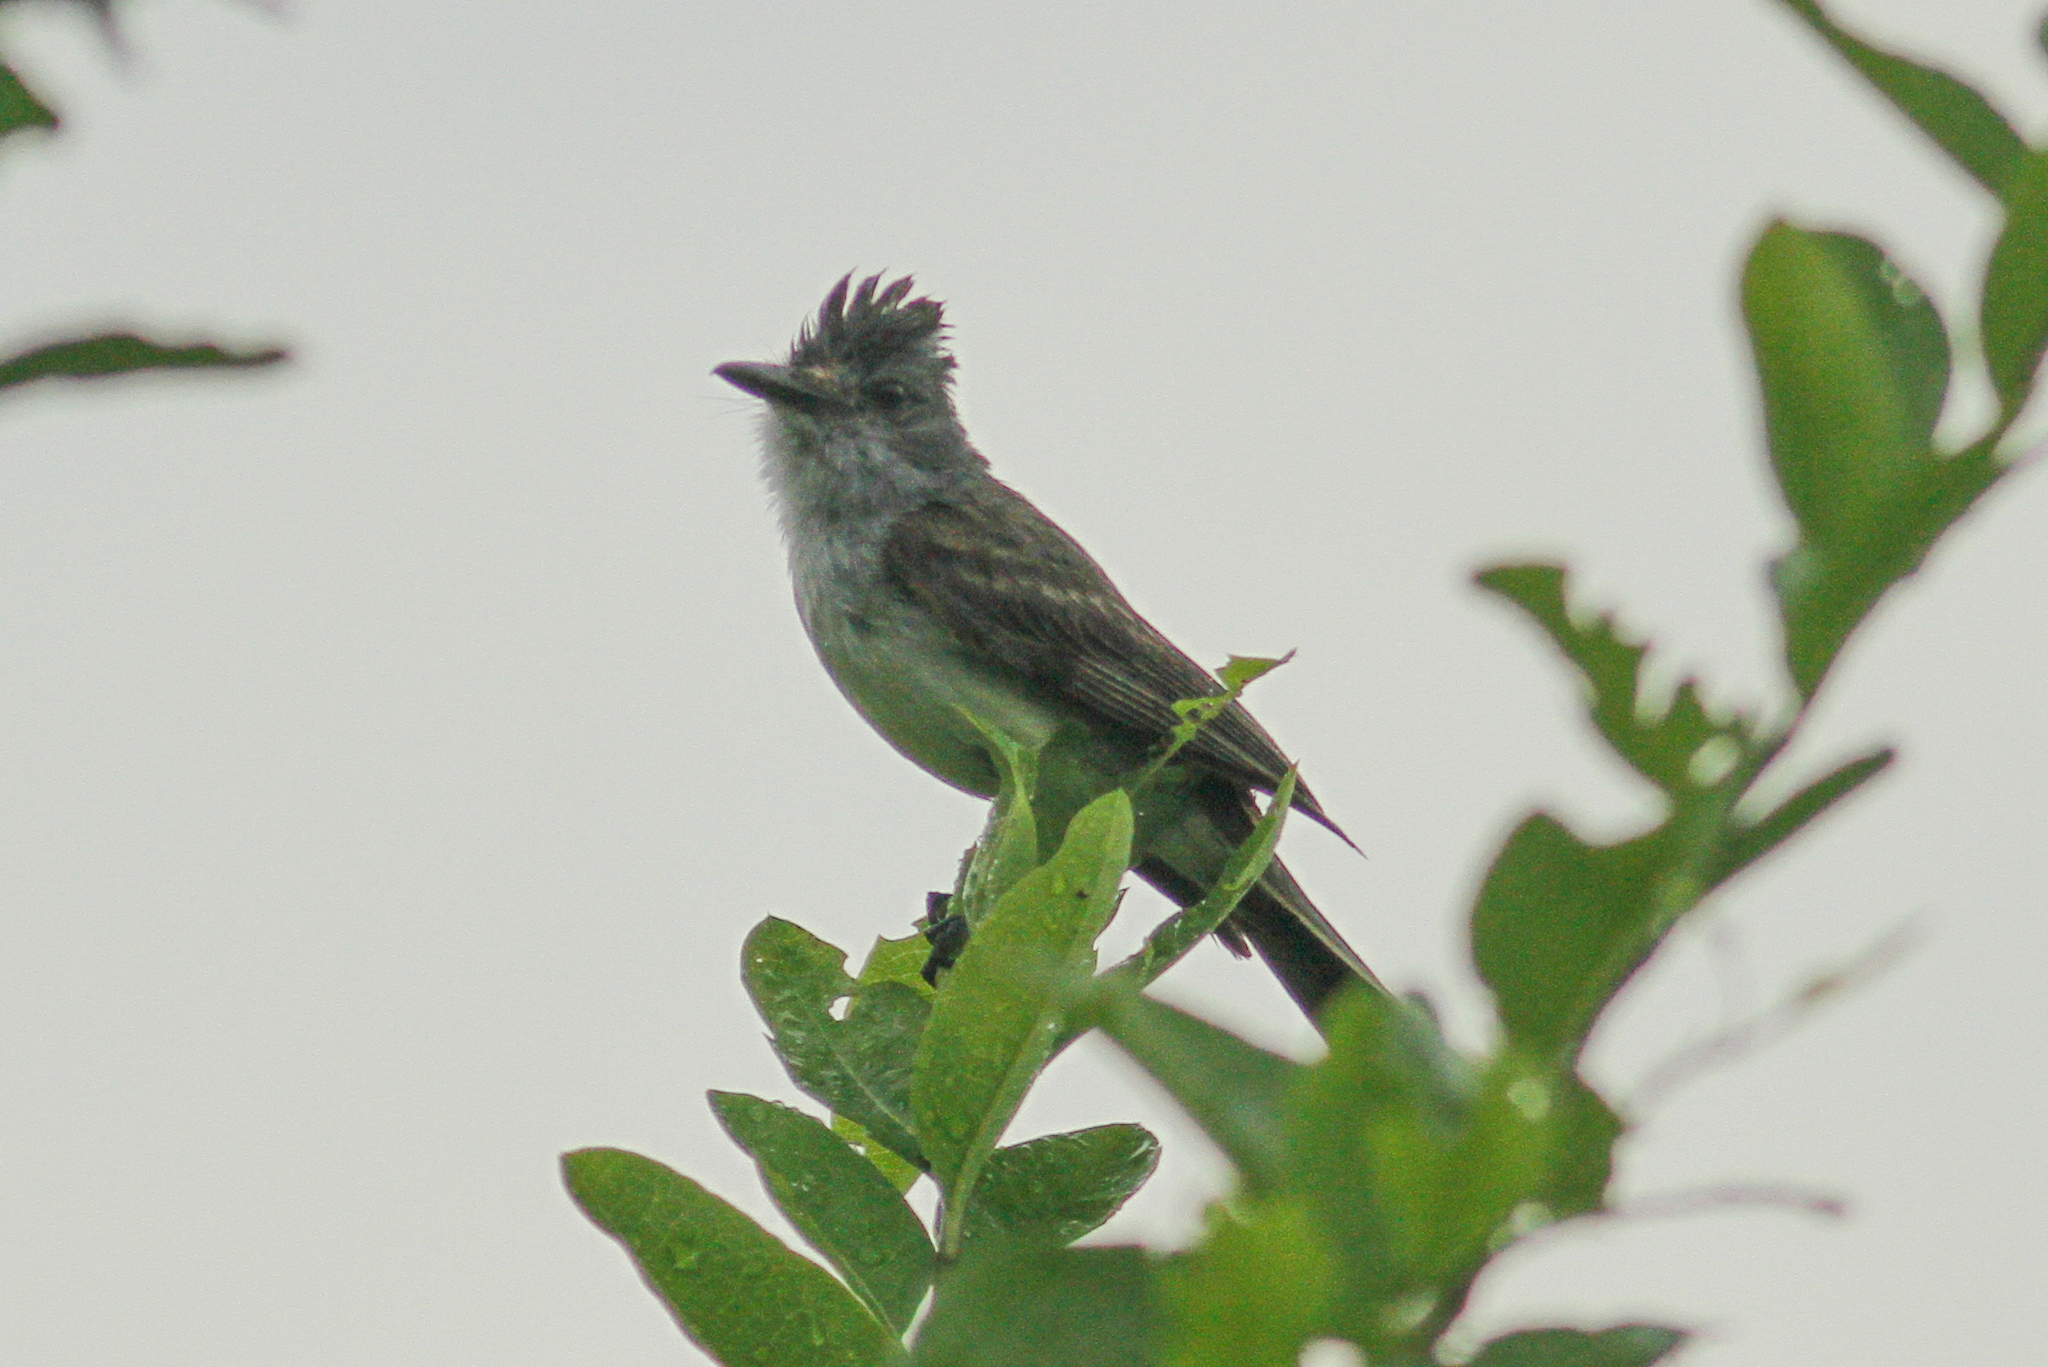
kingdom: Animalia
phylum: Chordata
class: Aves
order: Passeriformes
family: Tyrannidae
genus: Myiarchus
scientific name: Myiarchus phaeocephalus
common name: Sooty-crowned flycatcher
